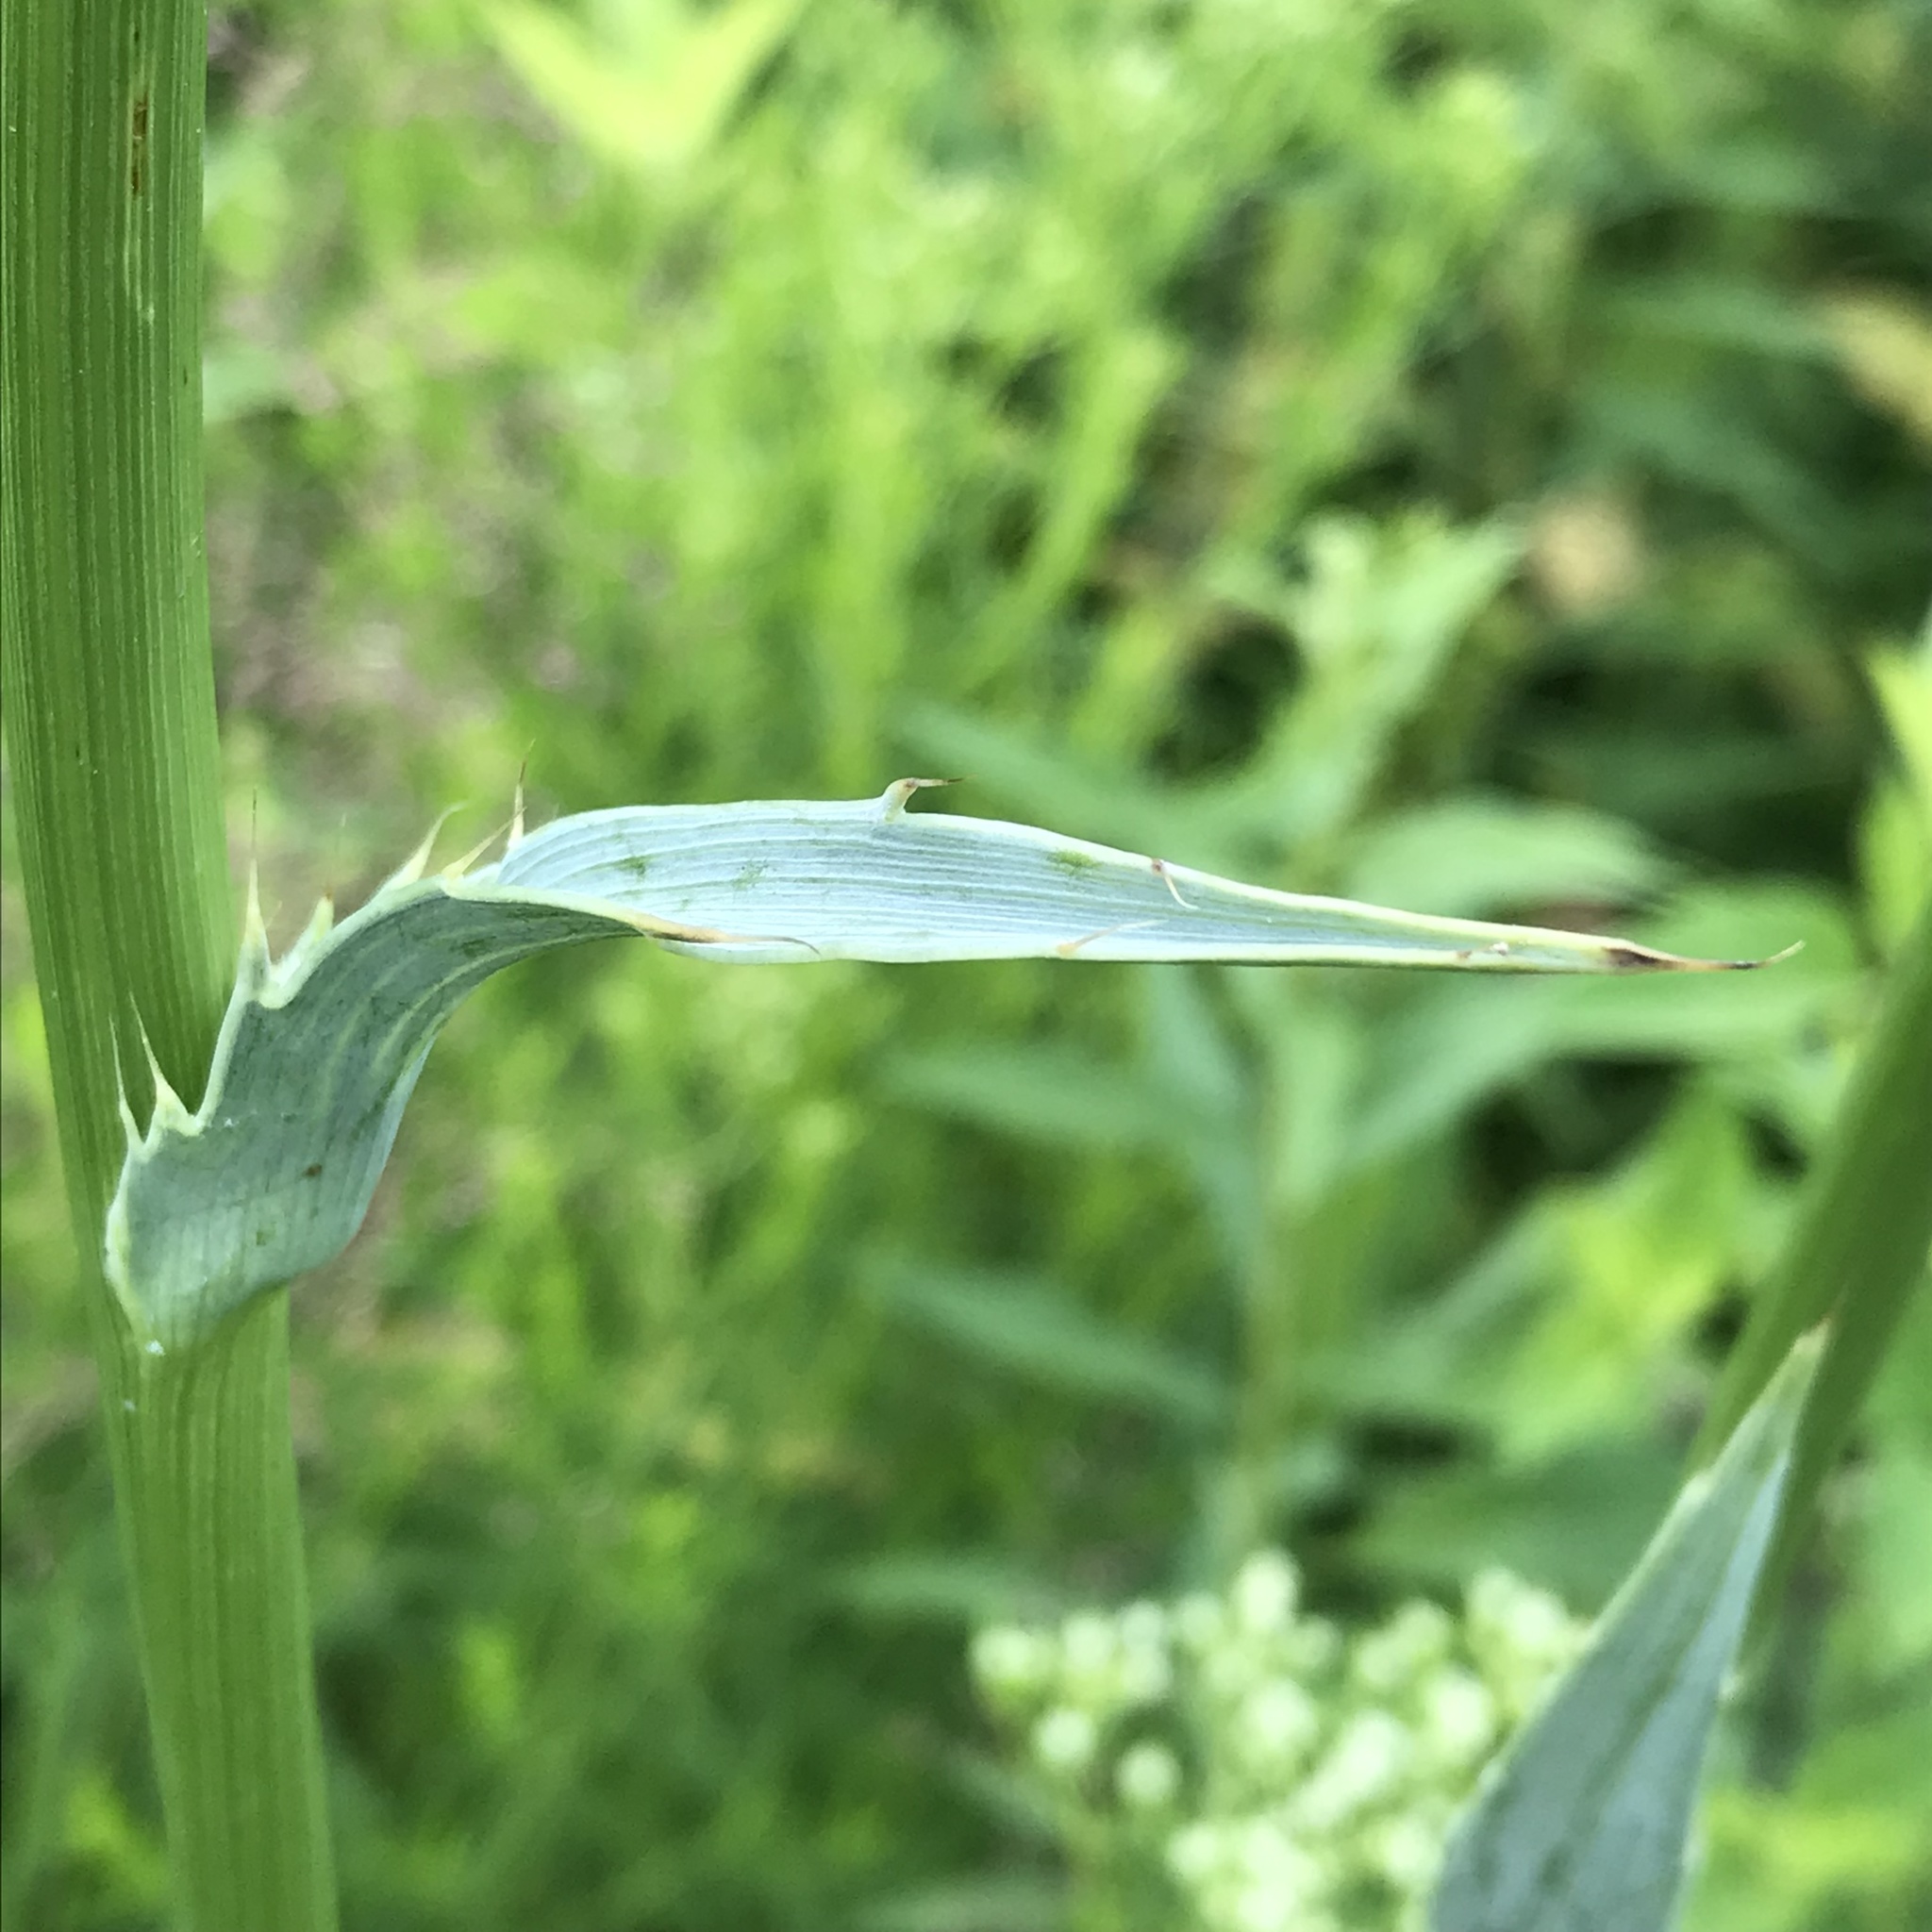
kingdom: Plantae
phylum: Tracheophyta
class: Magnoliopsida
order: Apiales
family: Apiaceae
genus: Eryngium
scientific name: Eryngium yuccifolium
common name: Button eryngo
